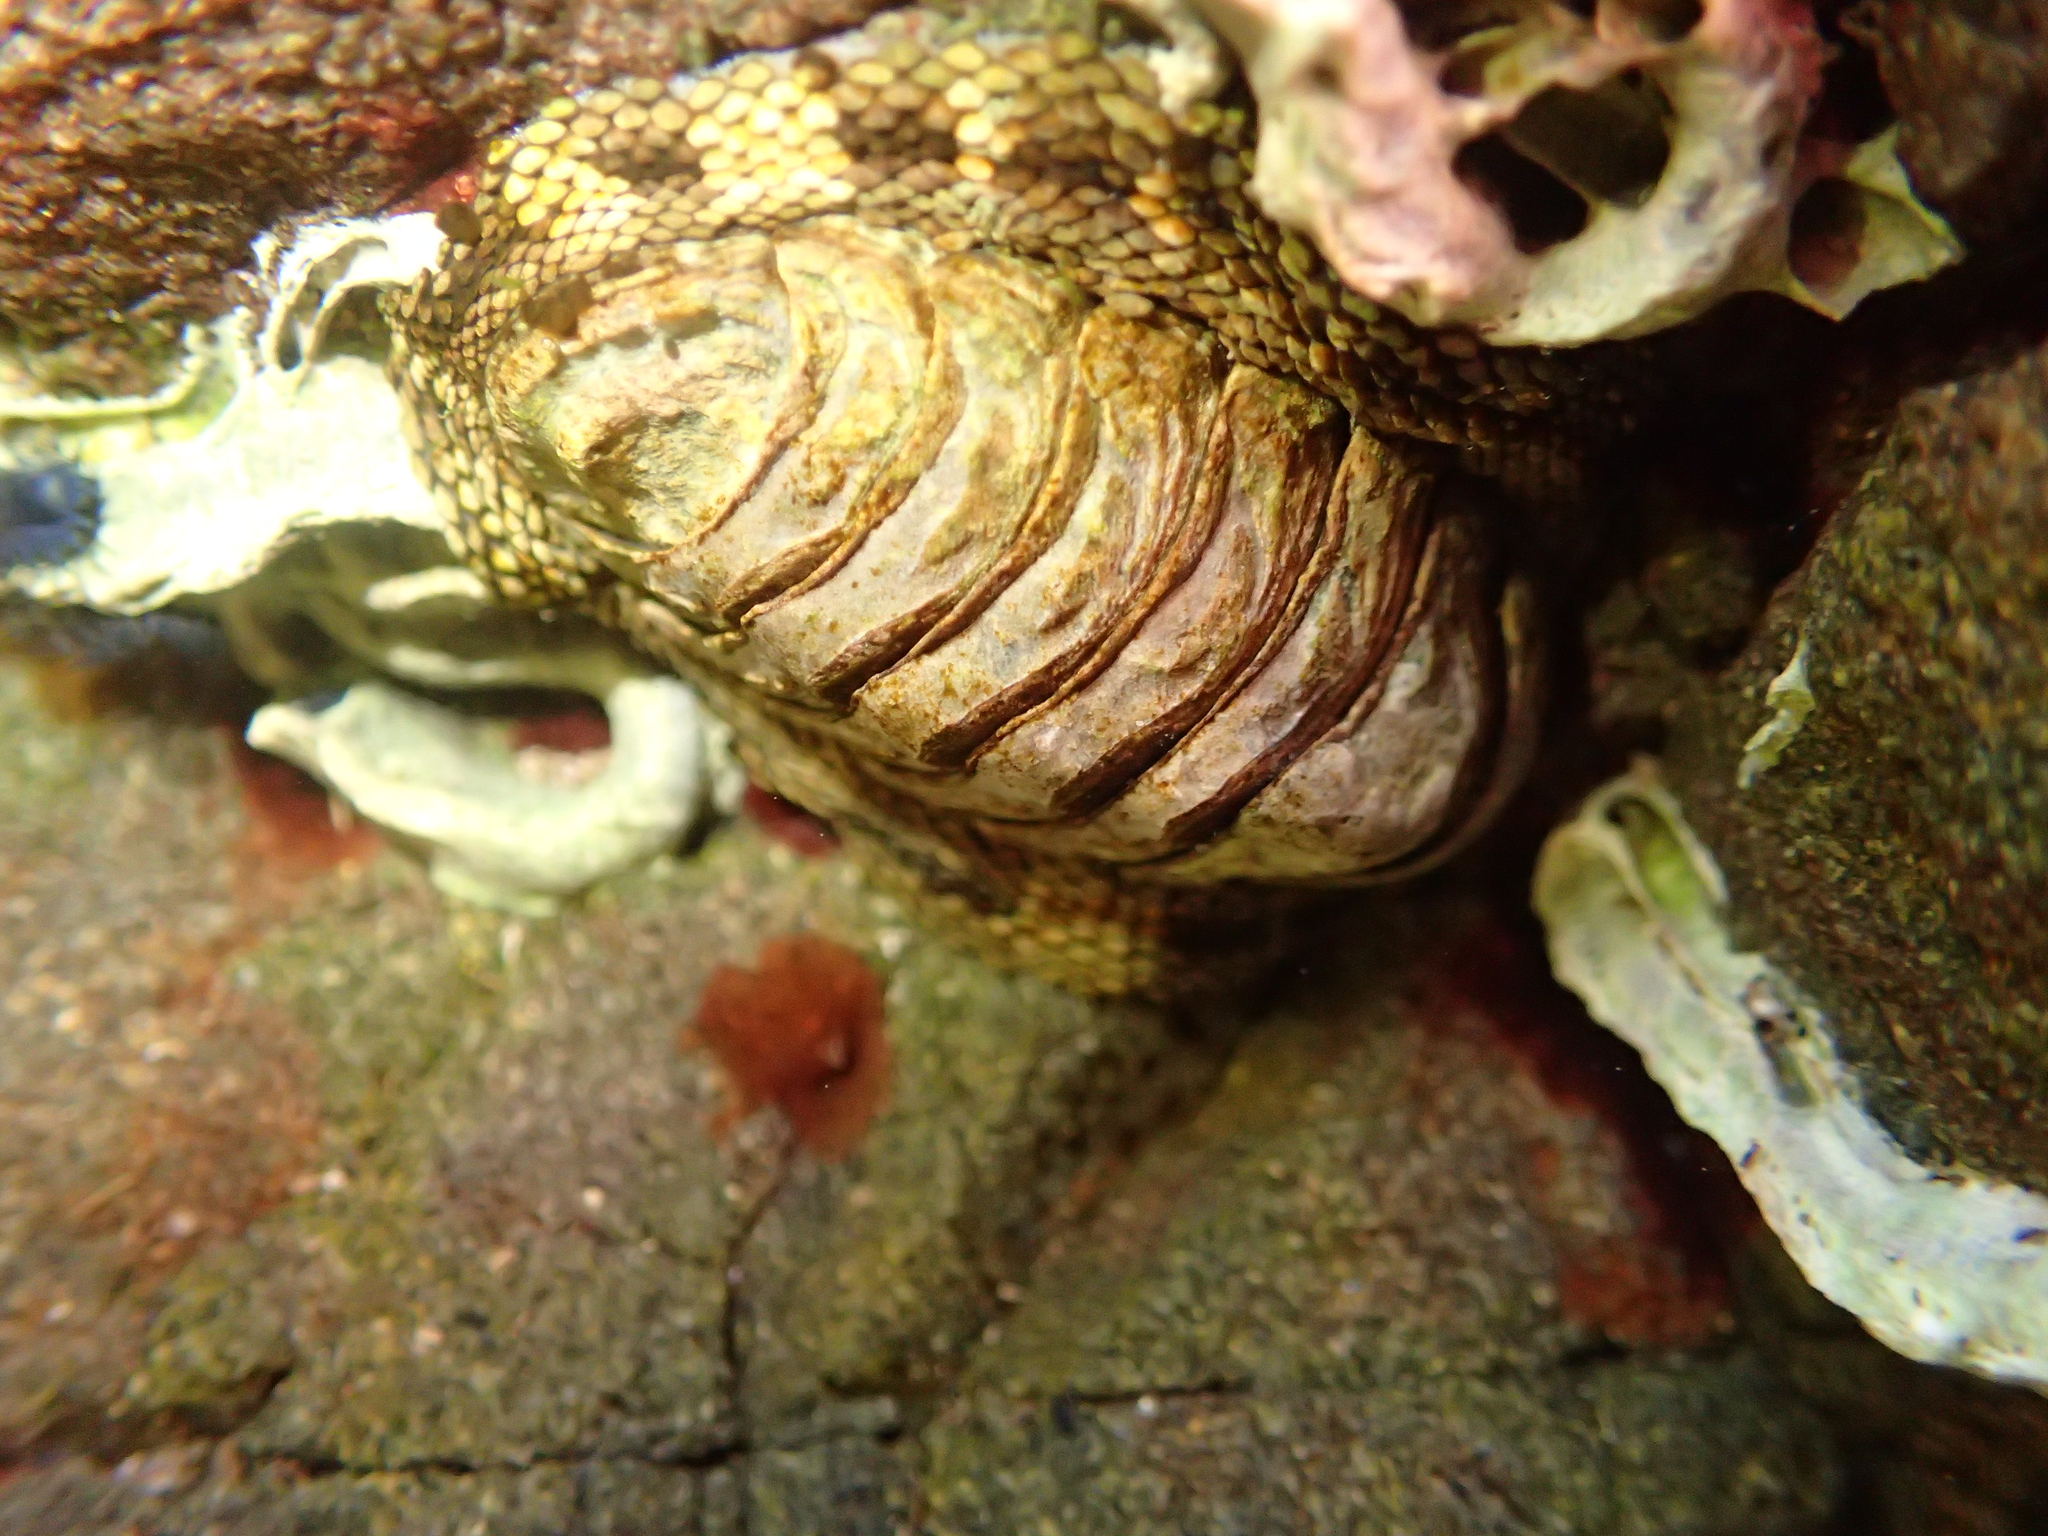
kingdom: Animalia
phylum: Mollusca
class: Polyplacophora
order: Chitonida
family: Chitonidae
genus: Sypharochiton
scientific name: Sypharochiton pelliserpentis
